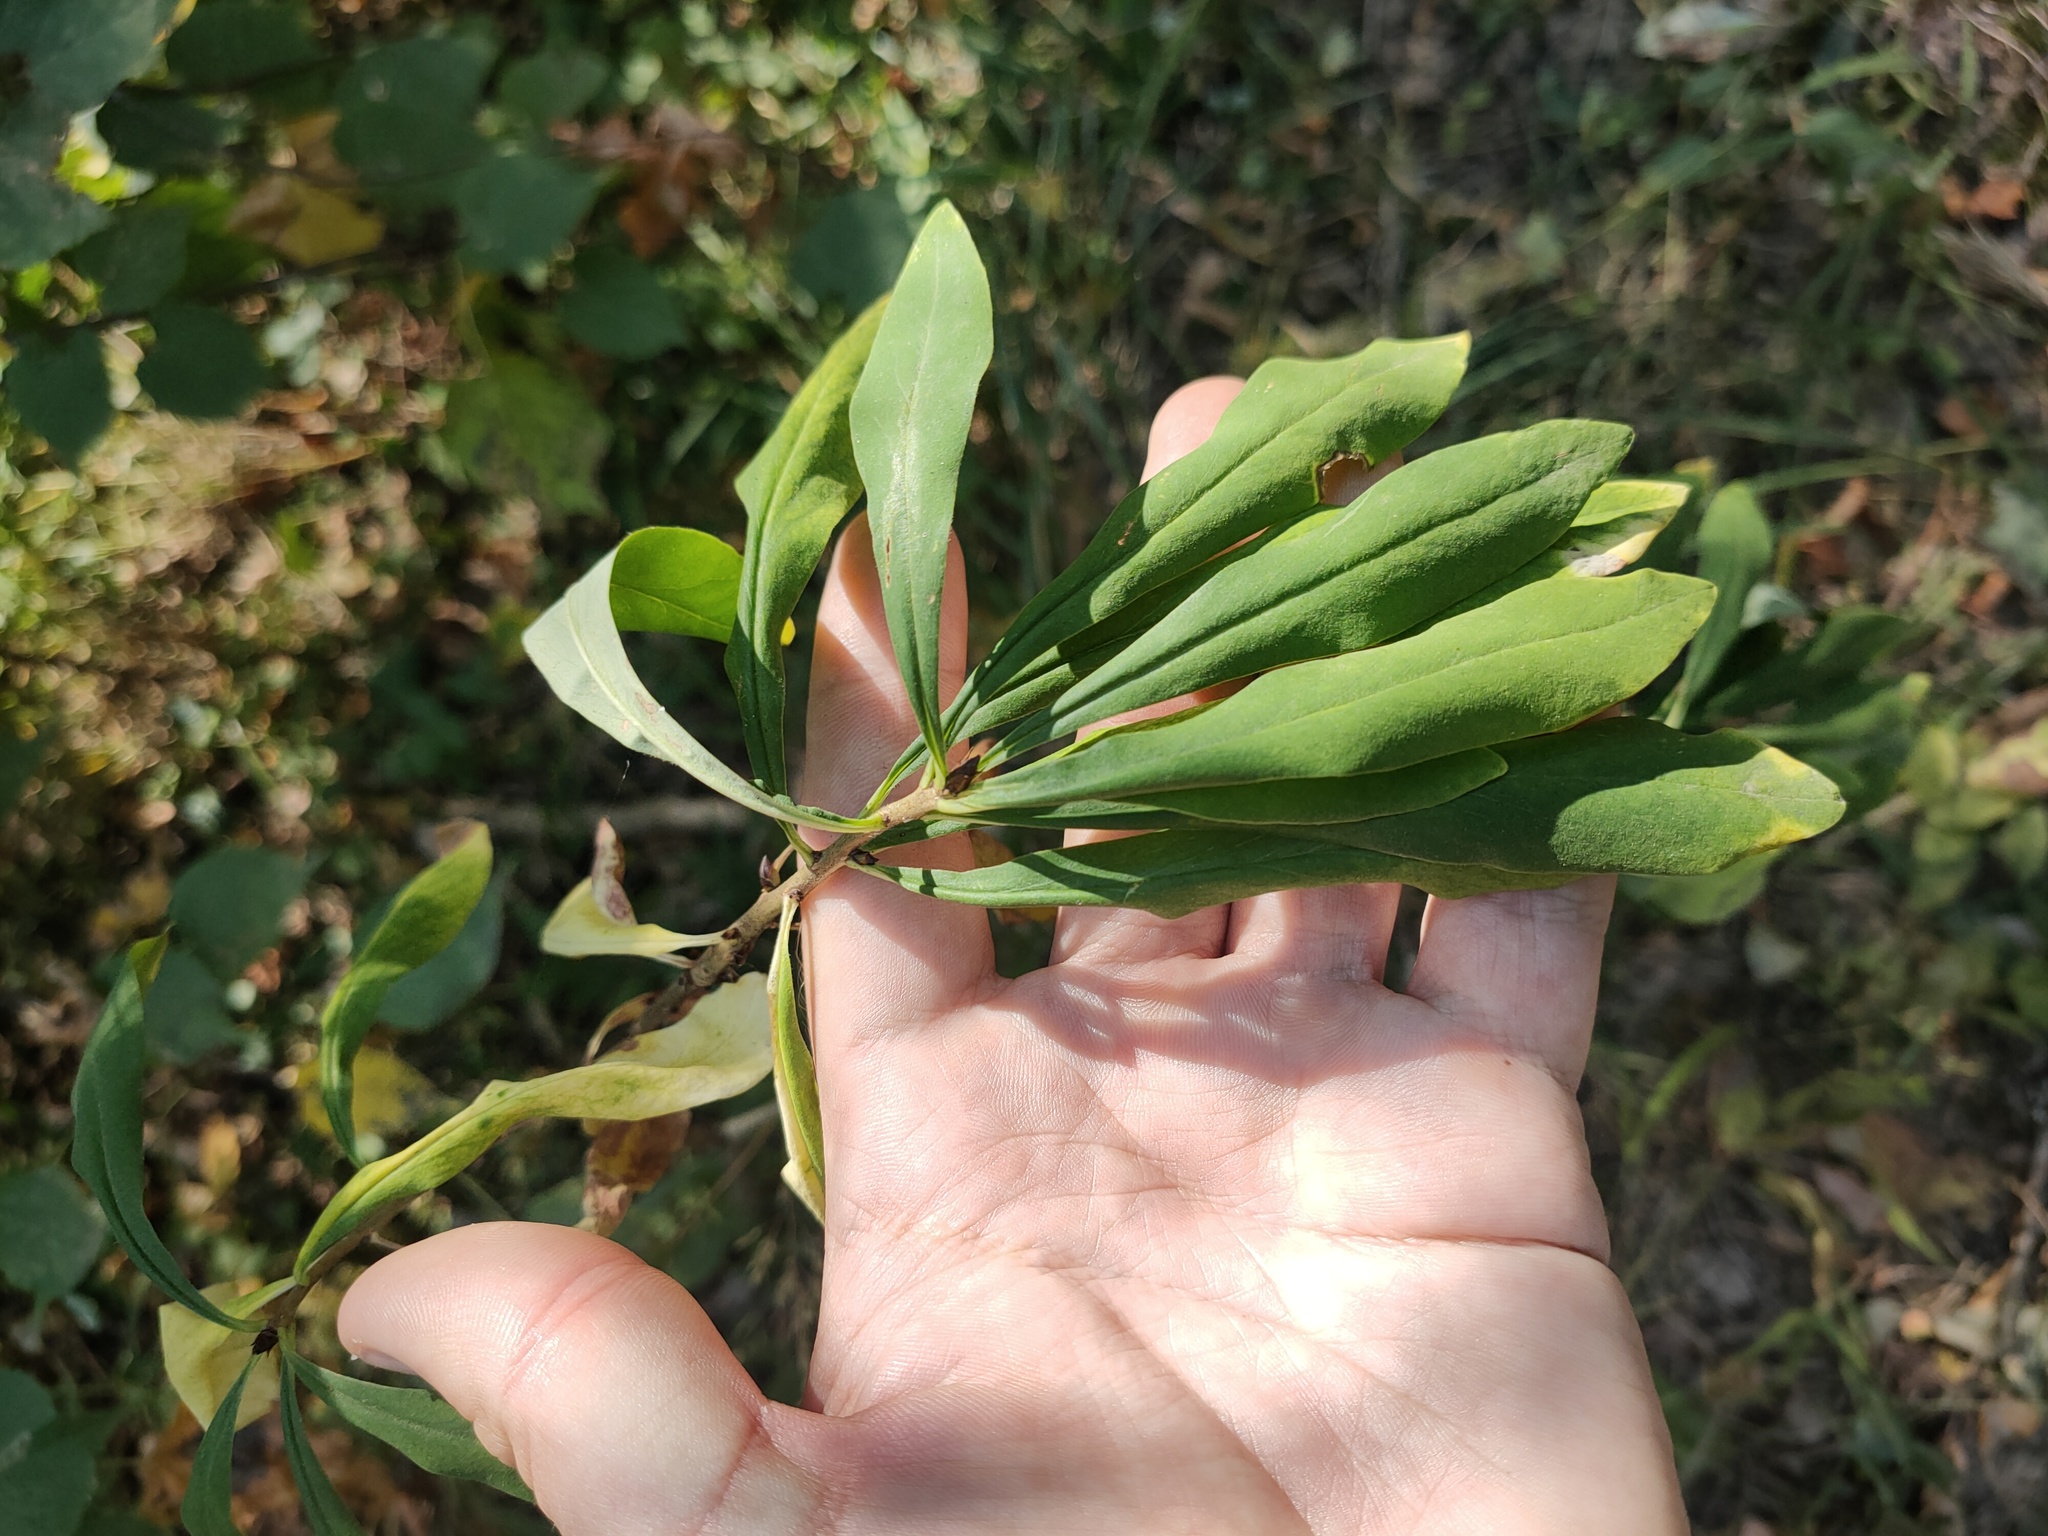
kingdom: Plantae
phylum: Tracheophyta
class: Magnoliopsida
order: Malvales
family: Thymelaeaceae
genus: Daphne
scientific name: Daphne mezereum
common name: Mezereon
